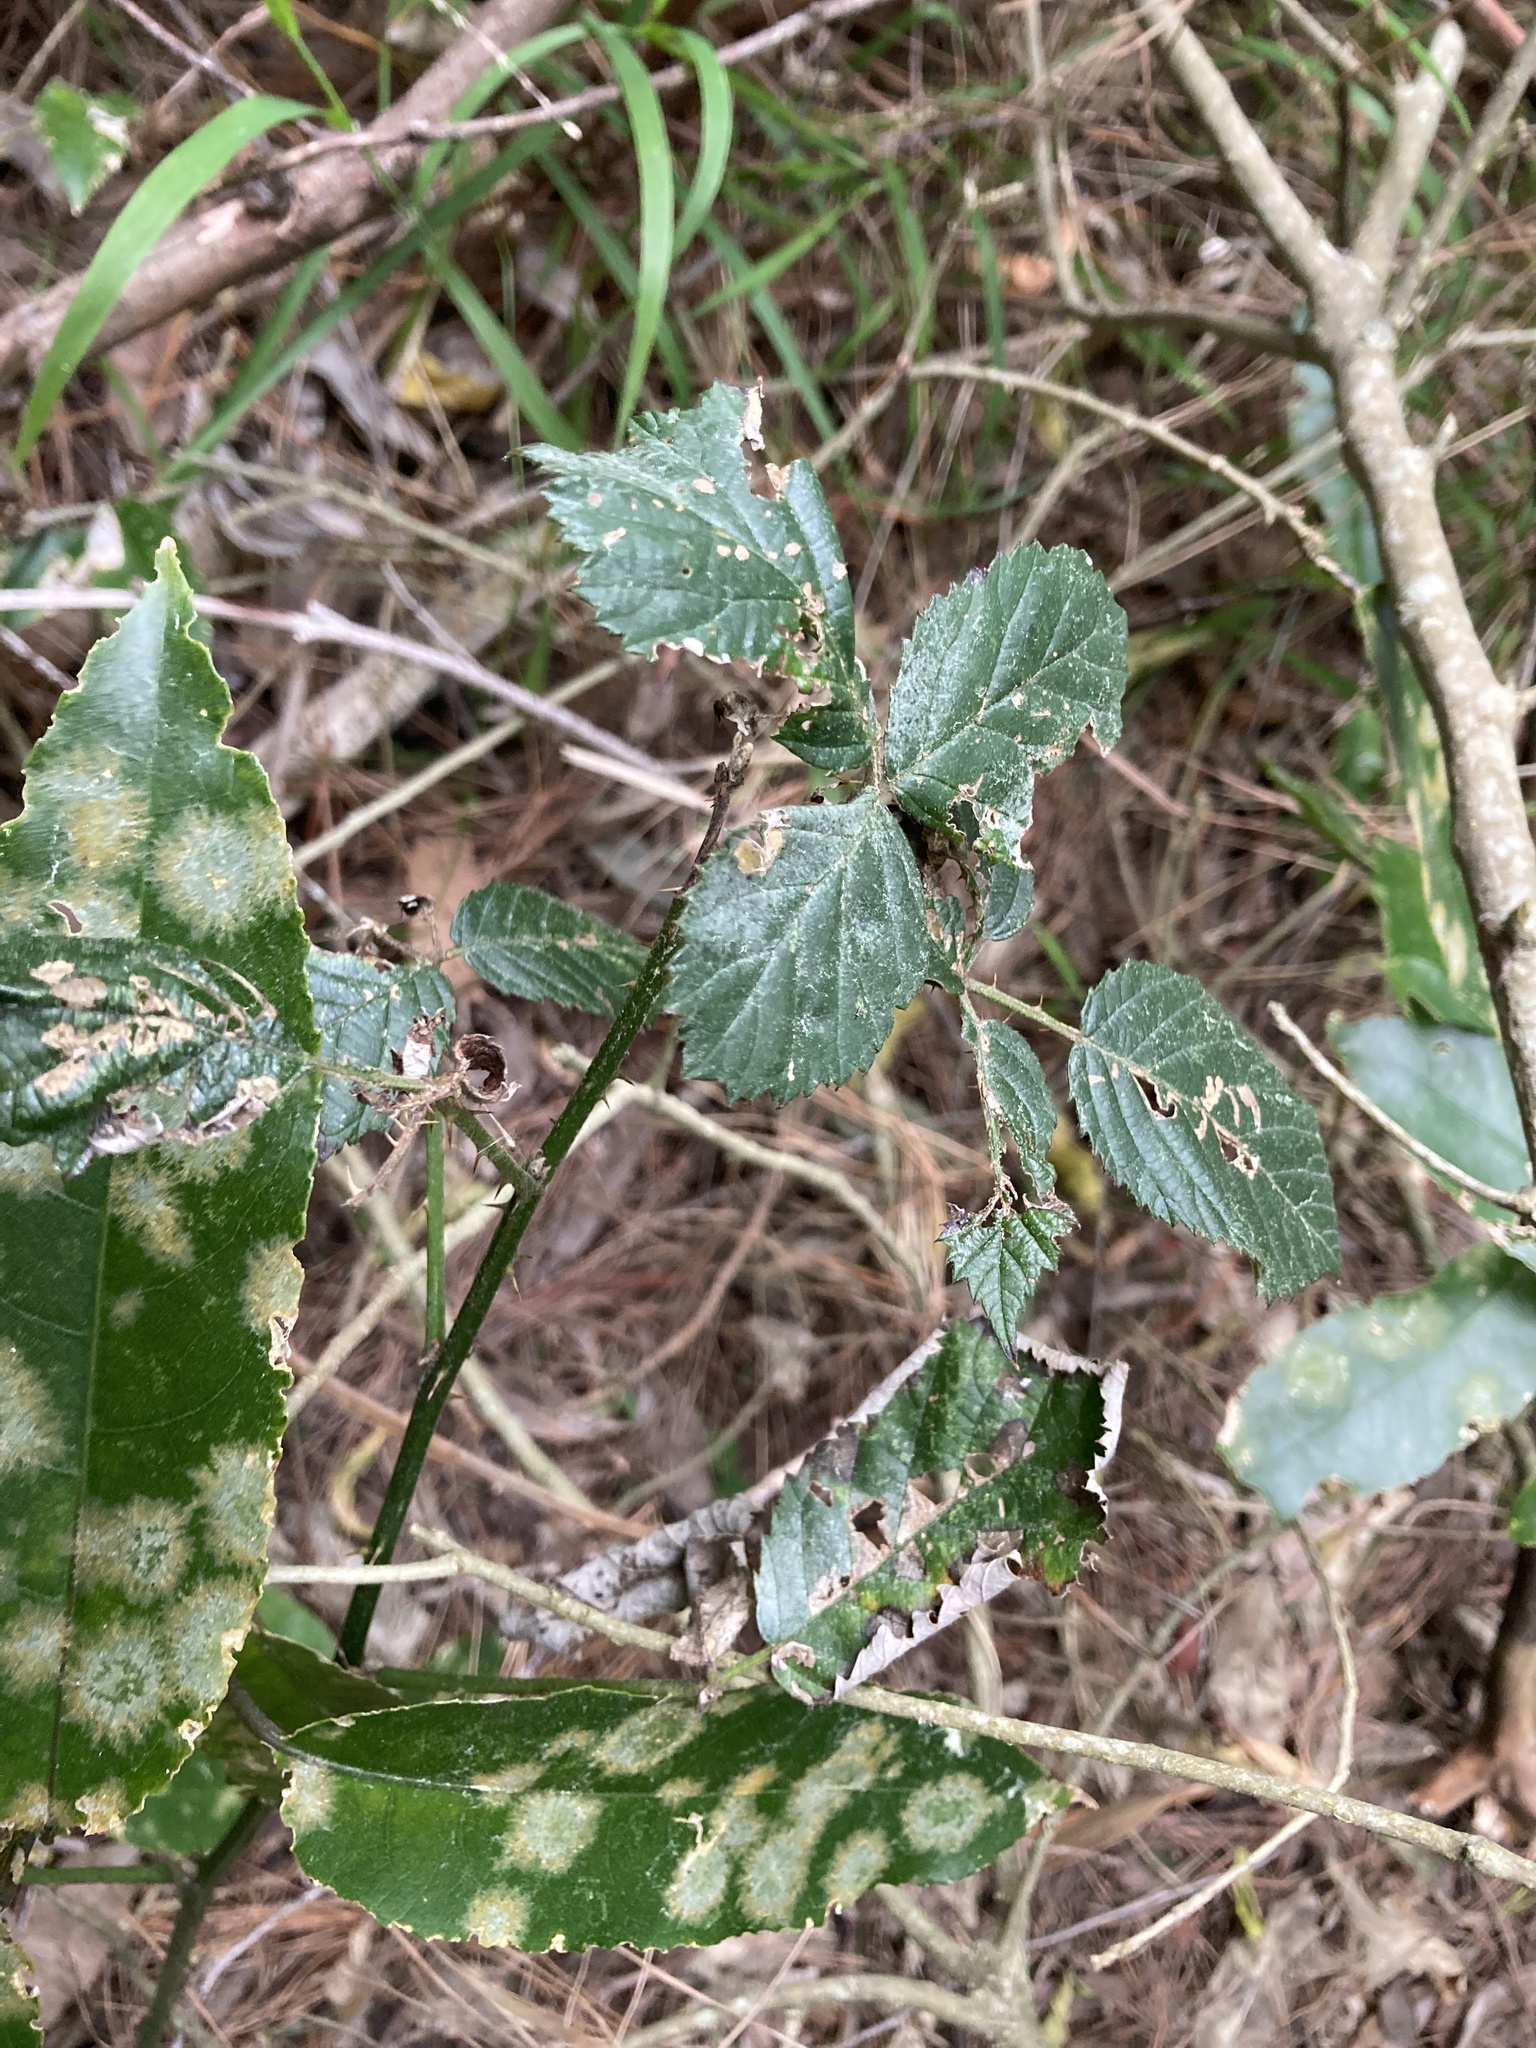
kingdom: Plantae
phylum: Tracheophyta
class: Magnoliopsida
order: Rosales
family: Rosaceae
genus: Rubus
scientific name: Rubus fruticosus
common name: Blackberry, bramble
